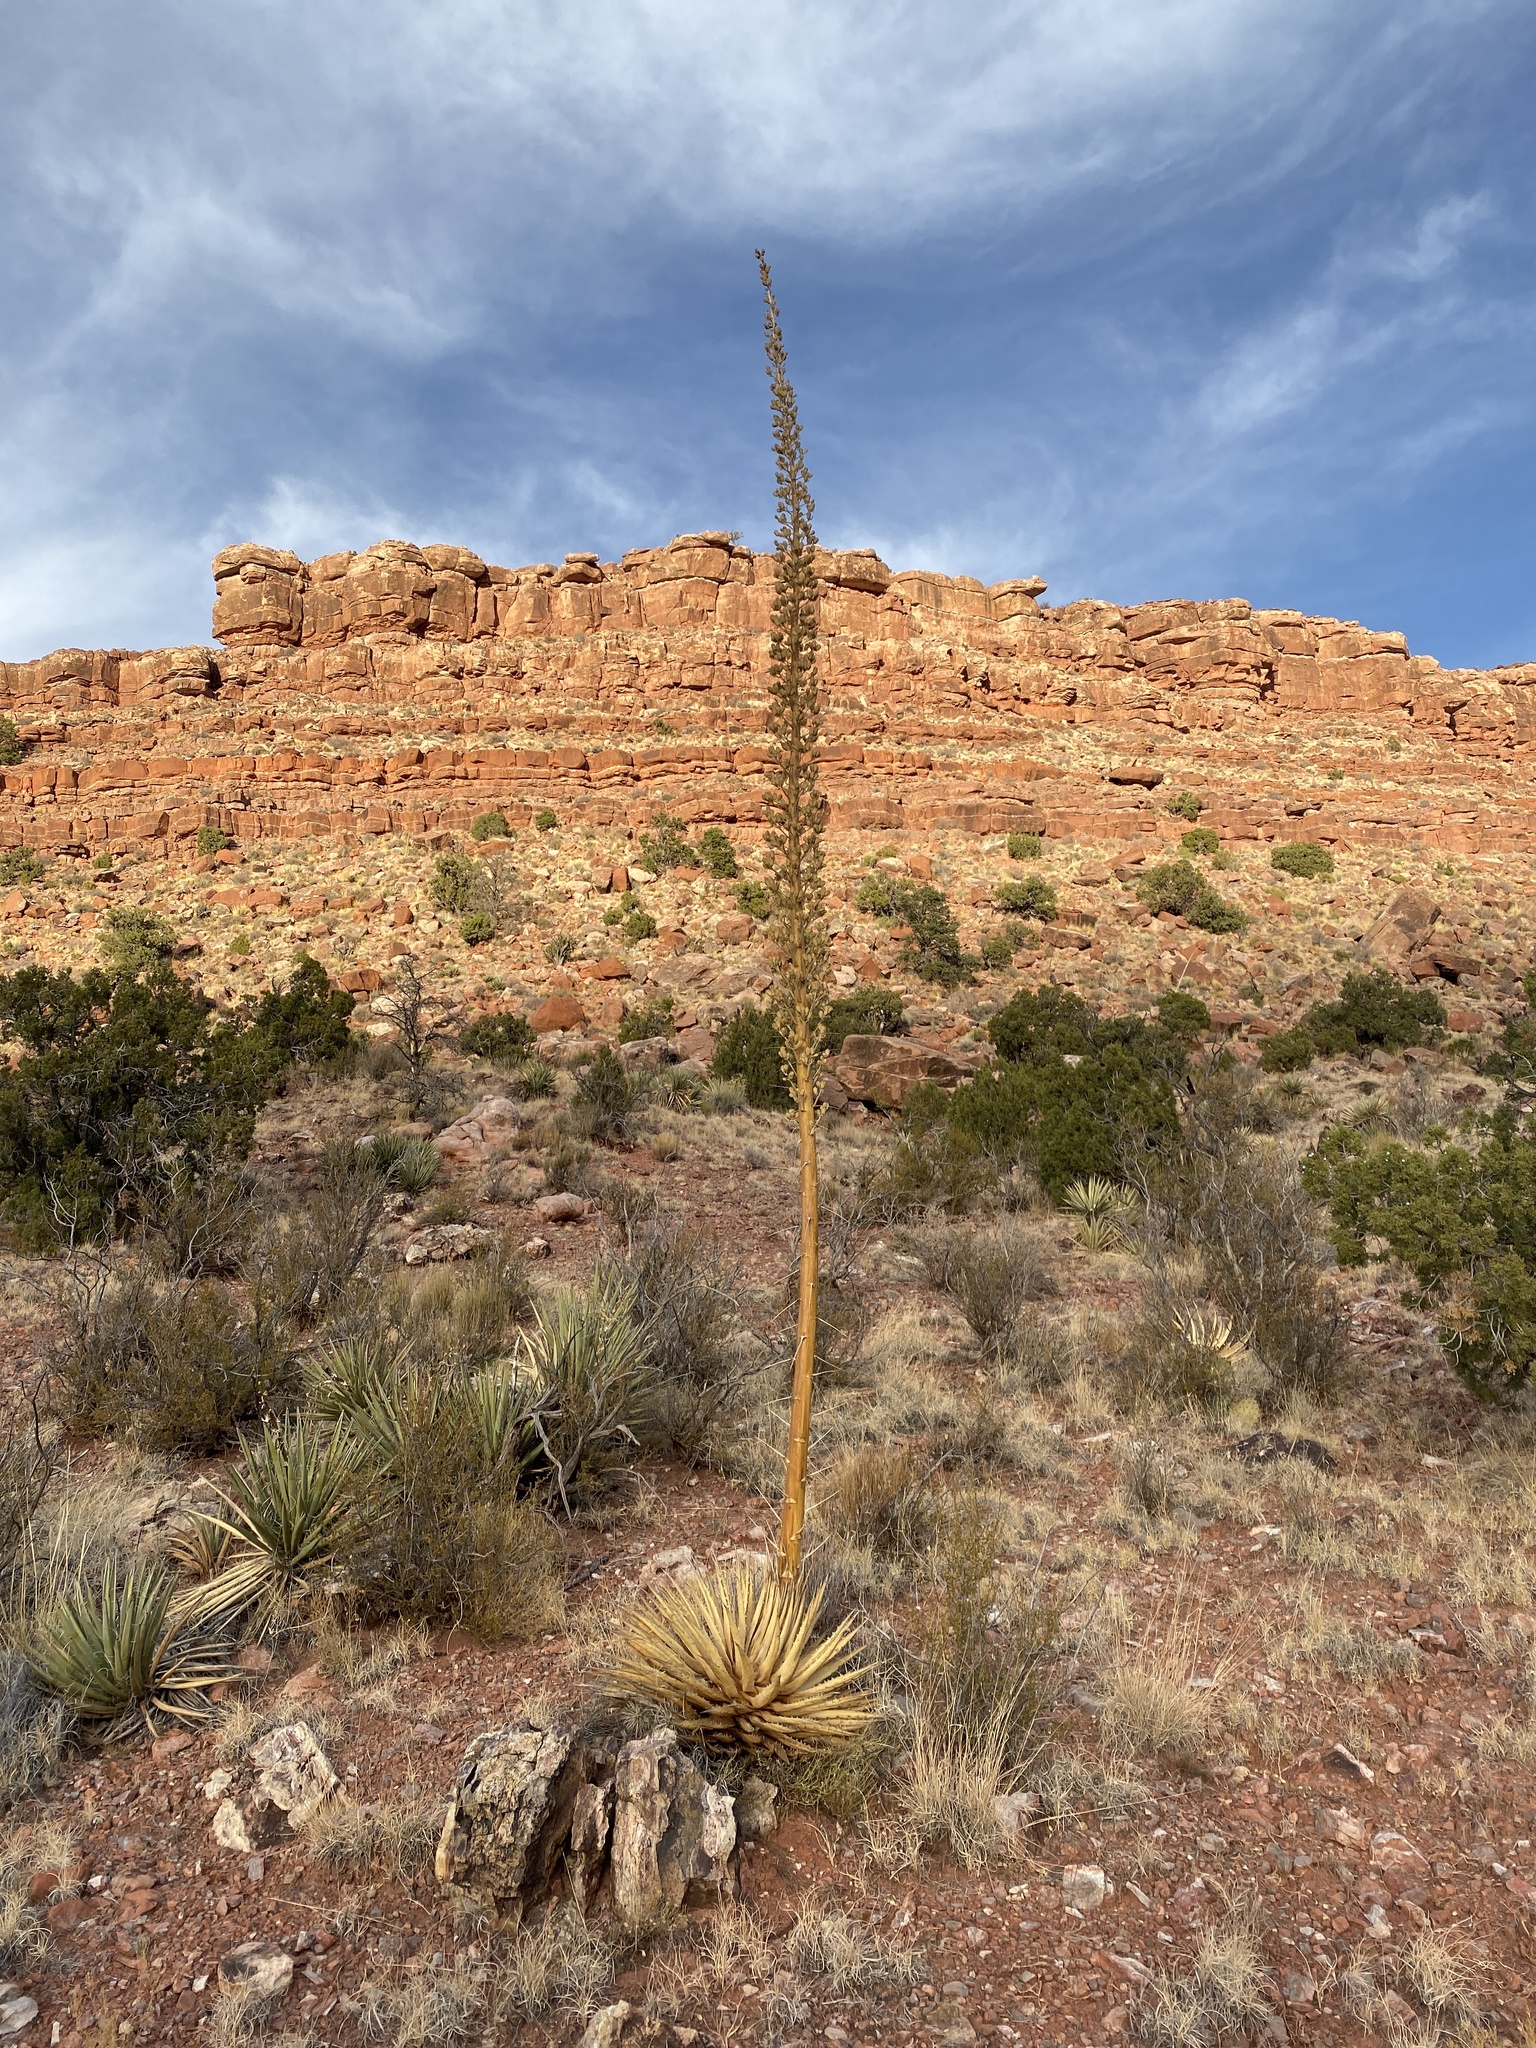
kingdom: Plantae
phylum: Tracheophyta
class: Liliopsida
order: Asparagales
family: Asparagaceae
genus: Agave
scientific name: Agave utahensis
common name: Utah agave
